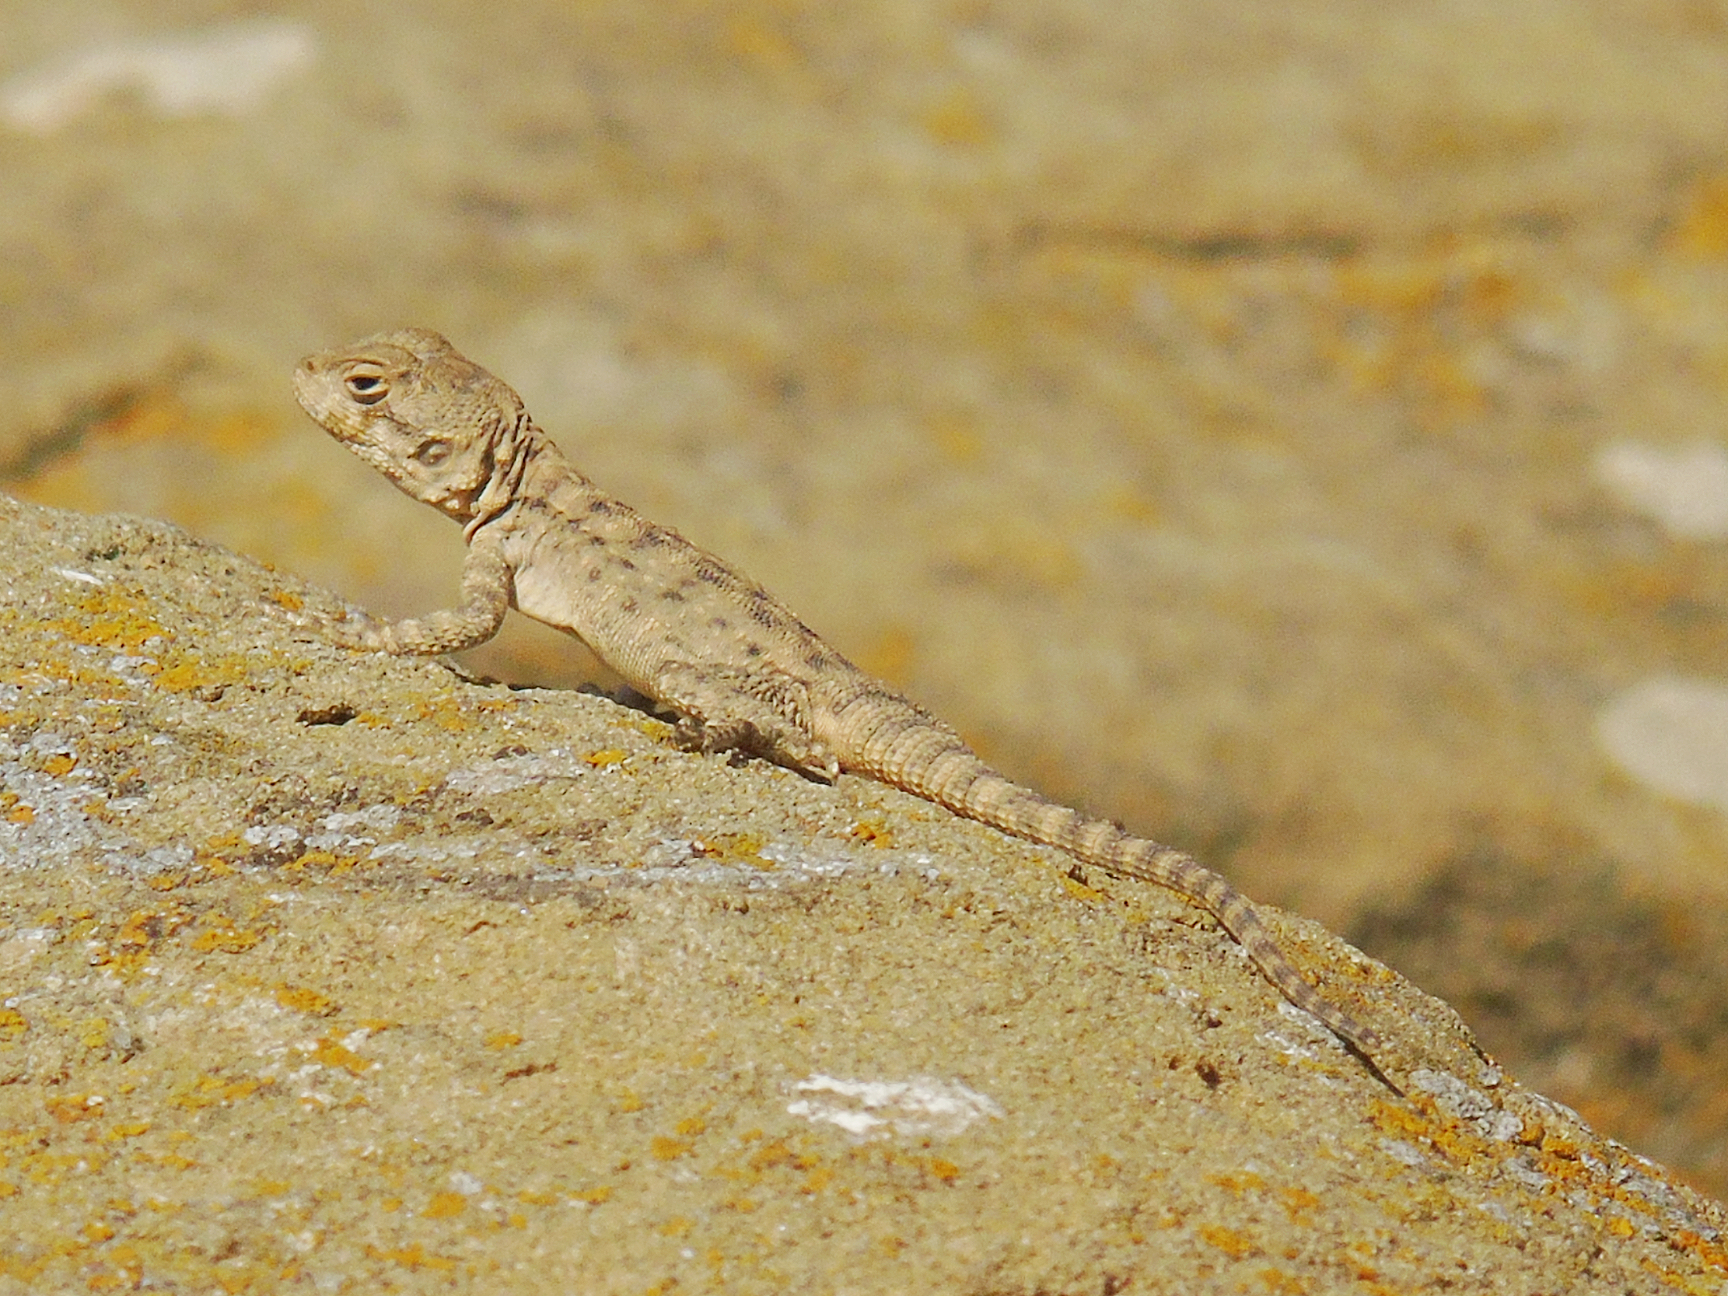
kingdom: Animalia
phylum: Chordata
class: Squamata
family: Agamidae
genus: Paralaudakia
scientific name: Paralaudakia caucasia
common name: Caucasian agama
